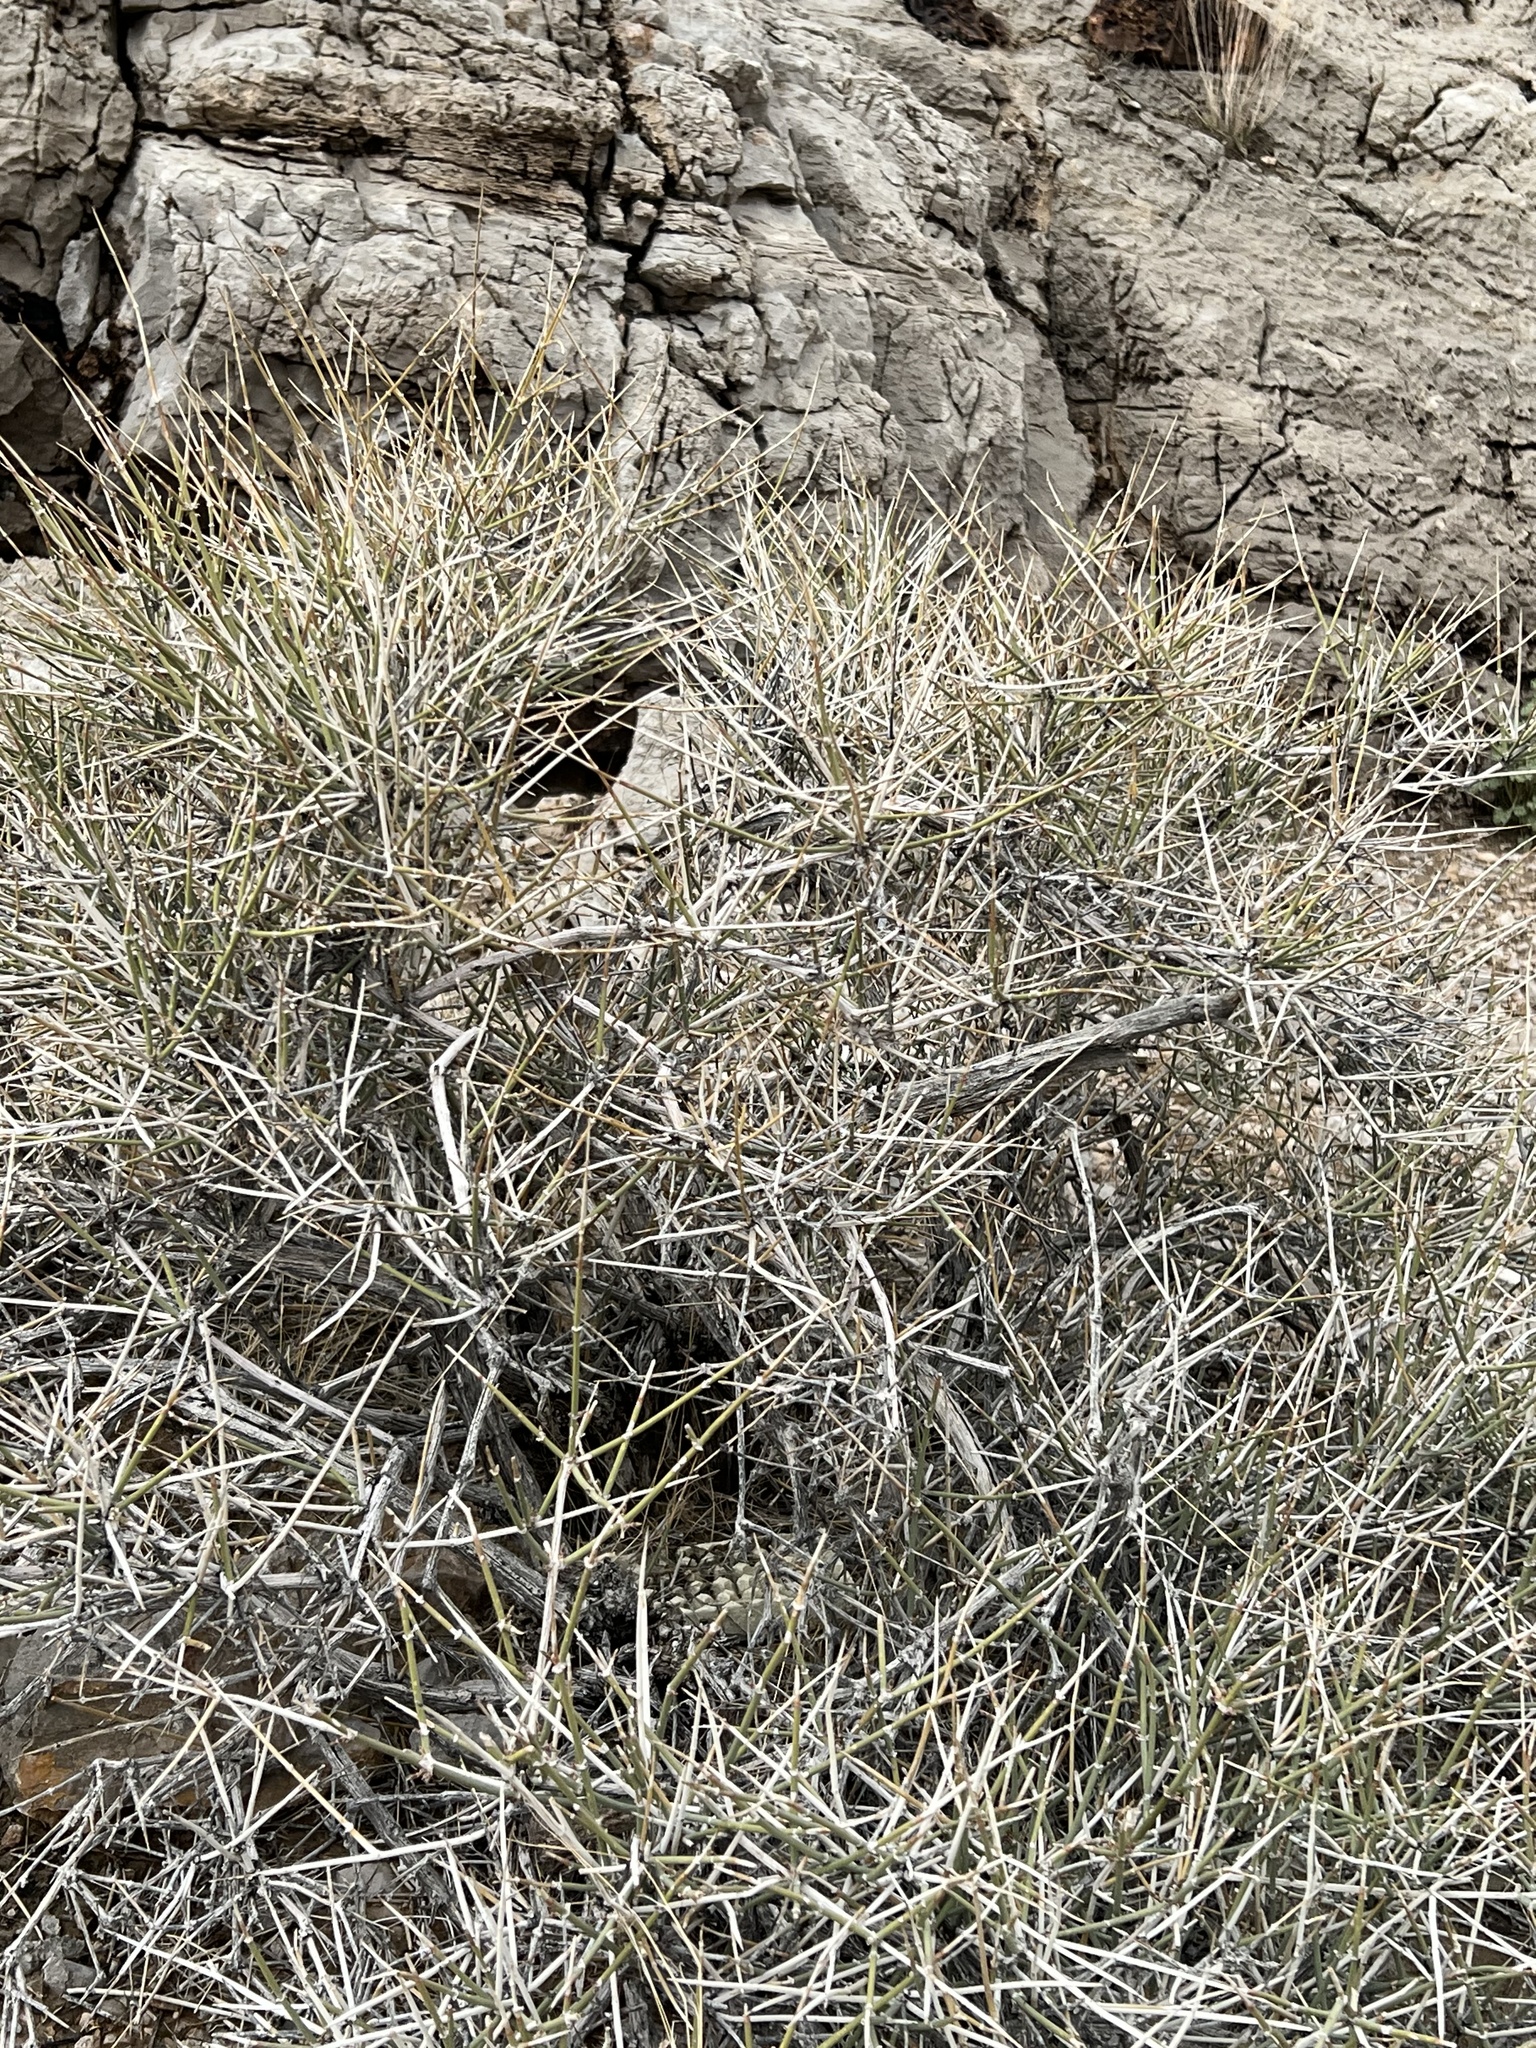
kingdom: Plantae
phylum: Tracheophyta
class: Gnetopsida
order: Ephedrales
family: Ephedraceae
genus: Ephedra
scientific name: Ephedra nevadensis
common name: Gray ephedra
